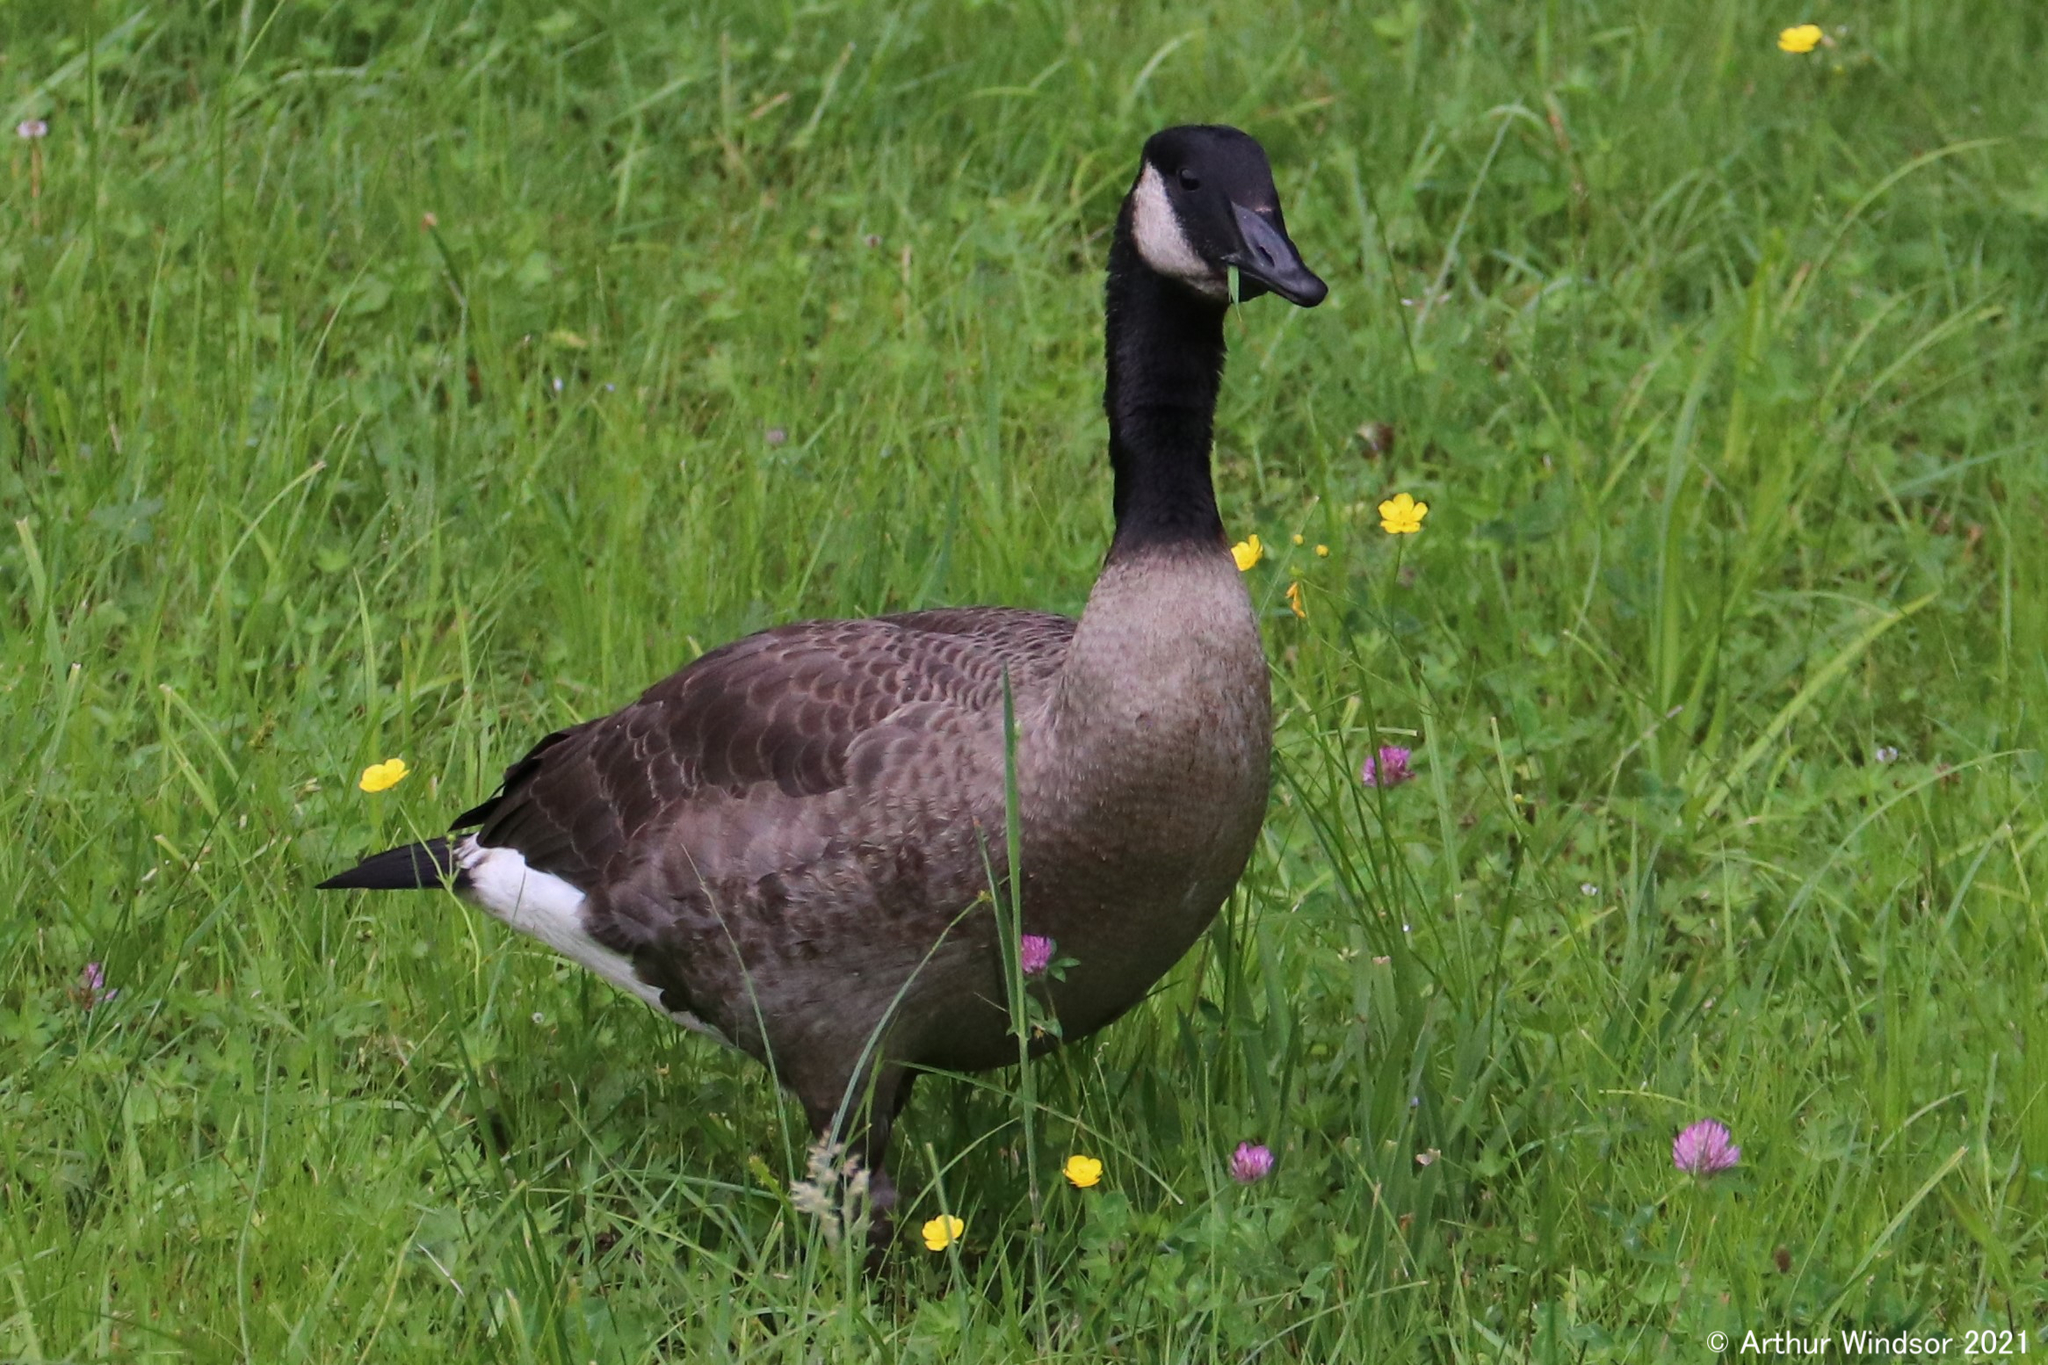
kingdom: Animalia
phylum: Chordata
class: Aves
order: Anseriformes
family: Anatidae
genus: Branta
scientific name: Branta canadensis
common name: Canada goose
